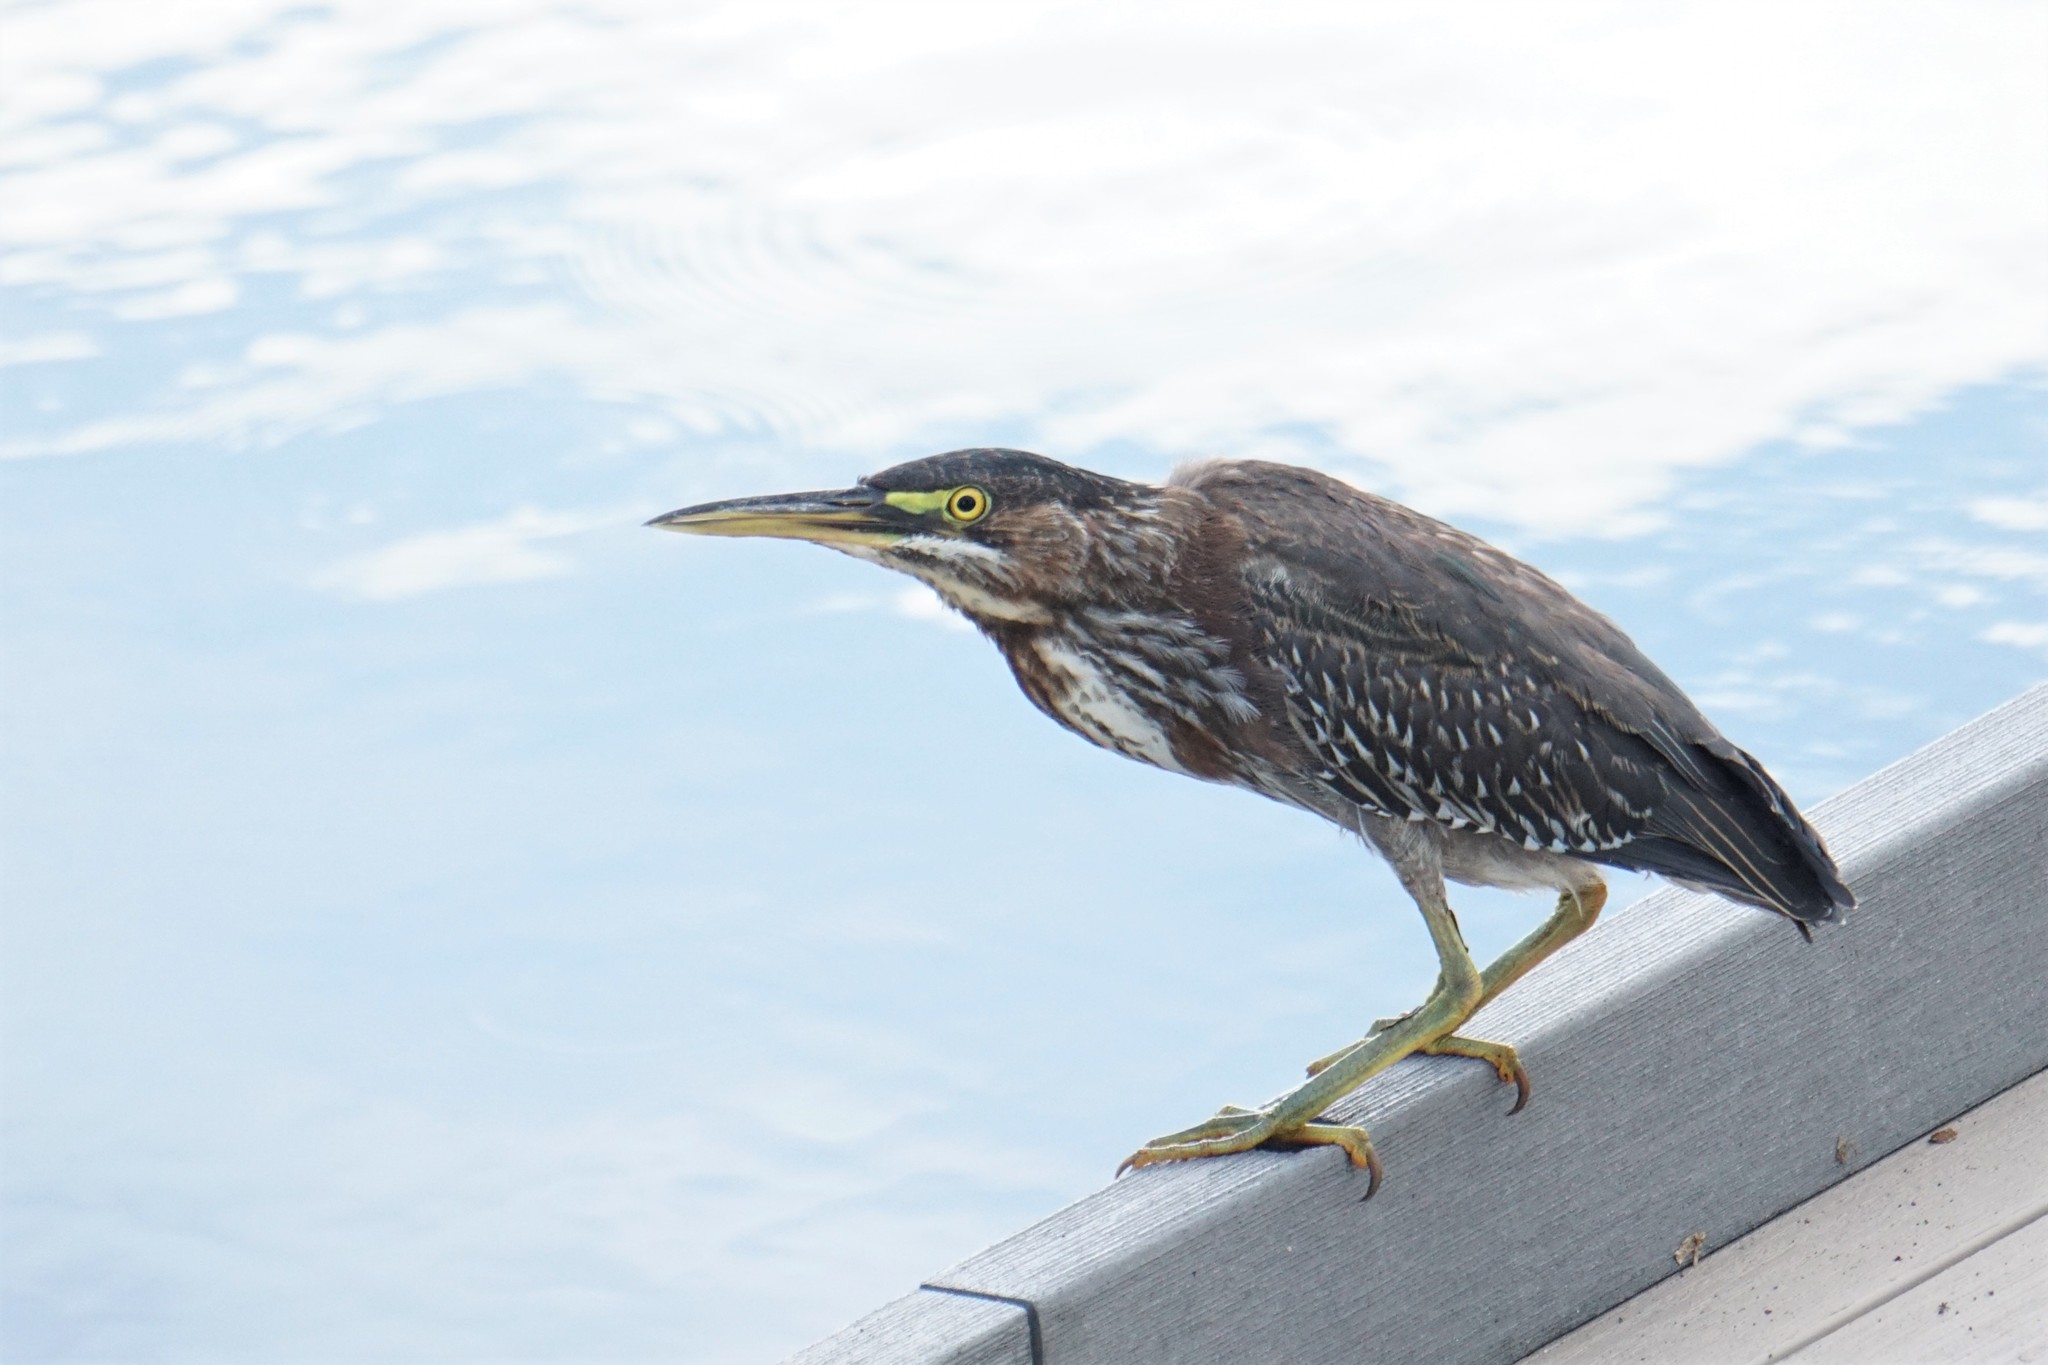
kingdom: Animalia
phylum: Chordata
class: Aves
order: Pelecaniformes
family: Ardeidae
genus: Butorides
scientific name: Butorides virescens
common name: Green heron
